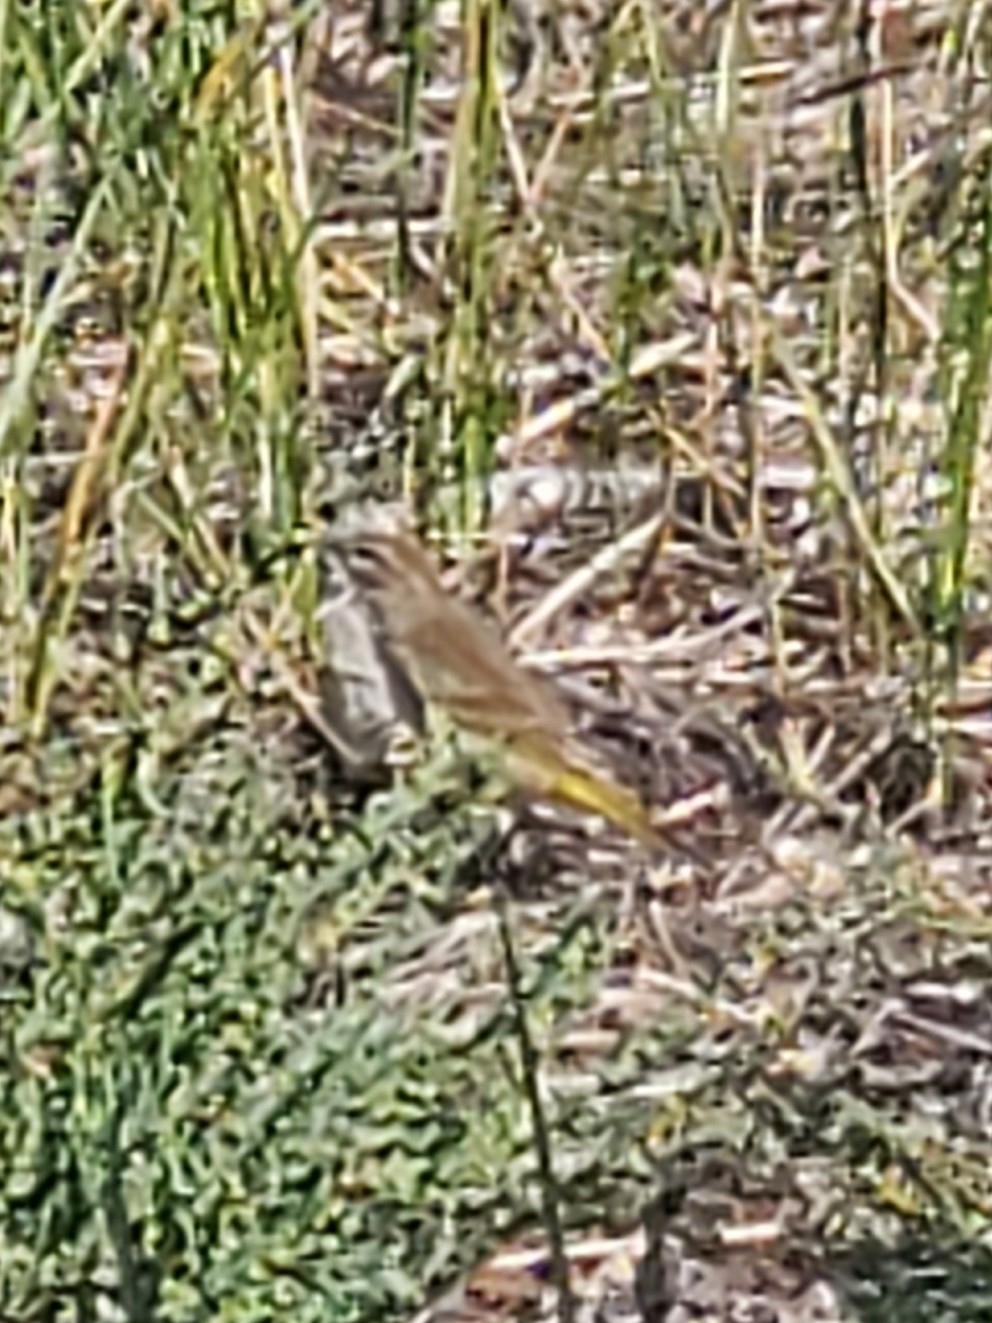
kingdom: Animalia
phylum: Chordata
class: Aves
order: Passeriformes
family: Parulidae
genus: Setophaga
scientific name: Setophaga palmarum
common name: Palm warbler
